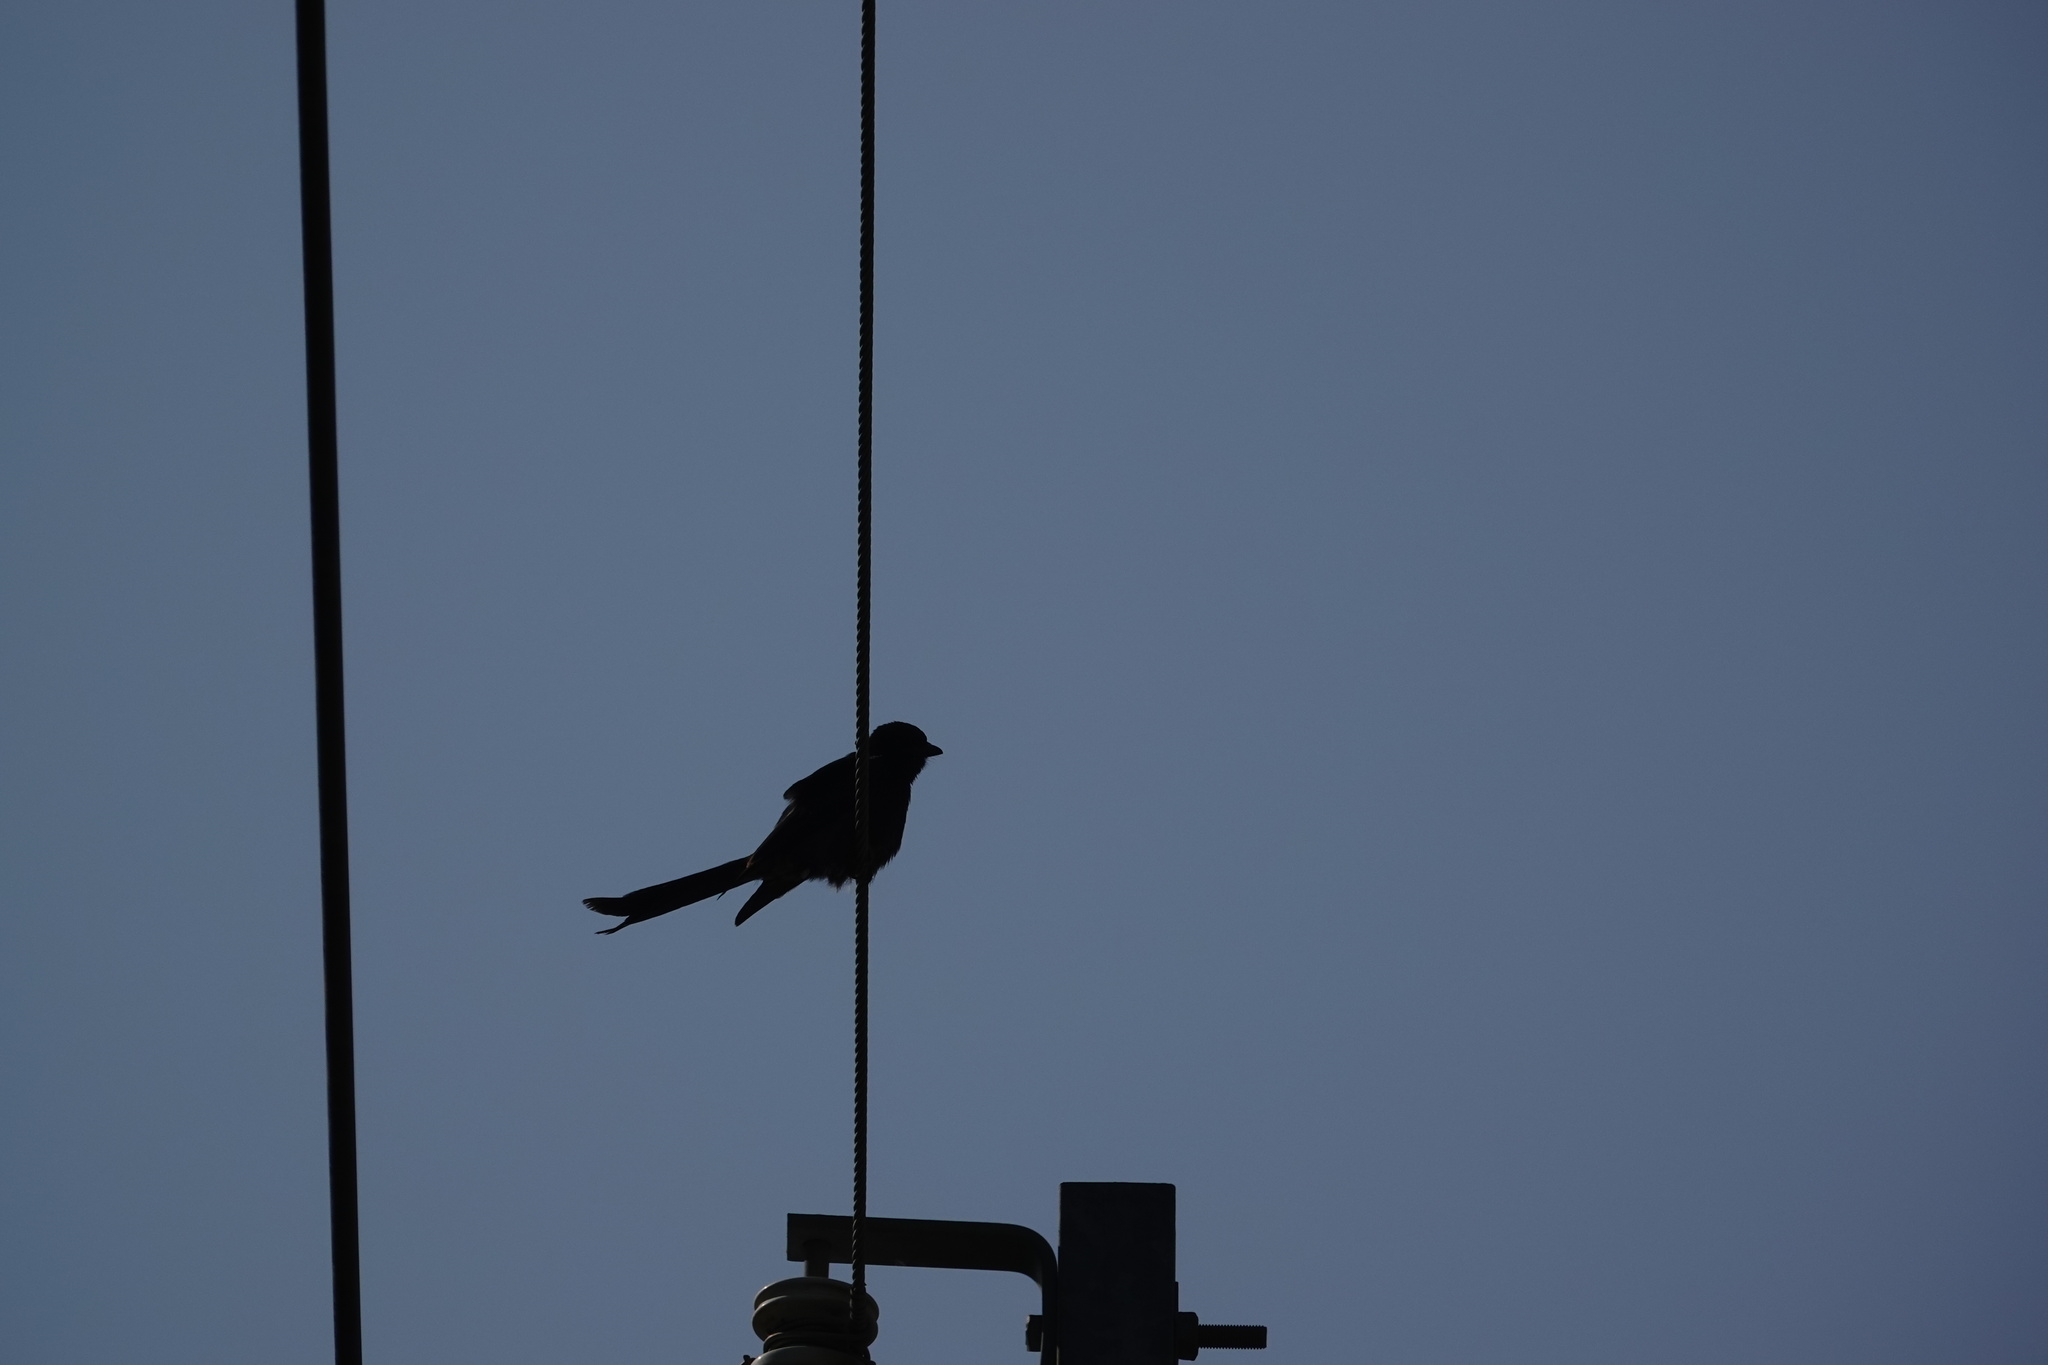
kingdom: Animalia
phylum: Chordata
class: Aves
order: Passeriformes
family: Dicruridae
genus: Dicrurus
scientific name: Dicrurus macrocercus
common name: Black drongo
